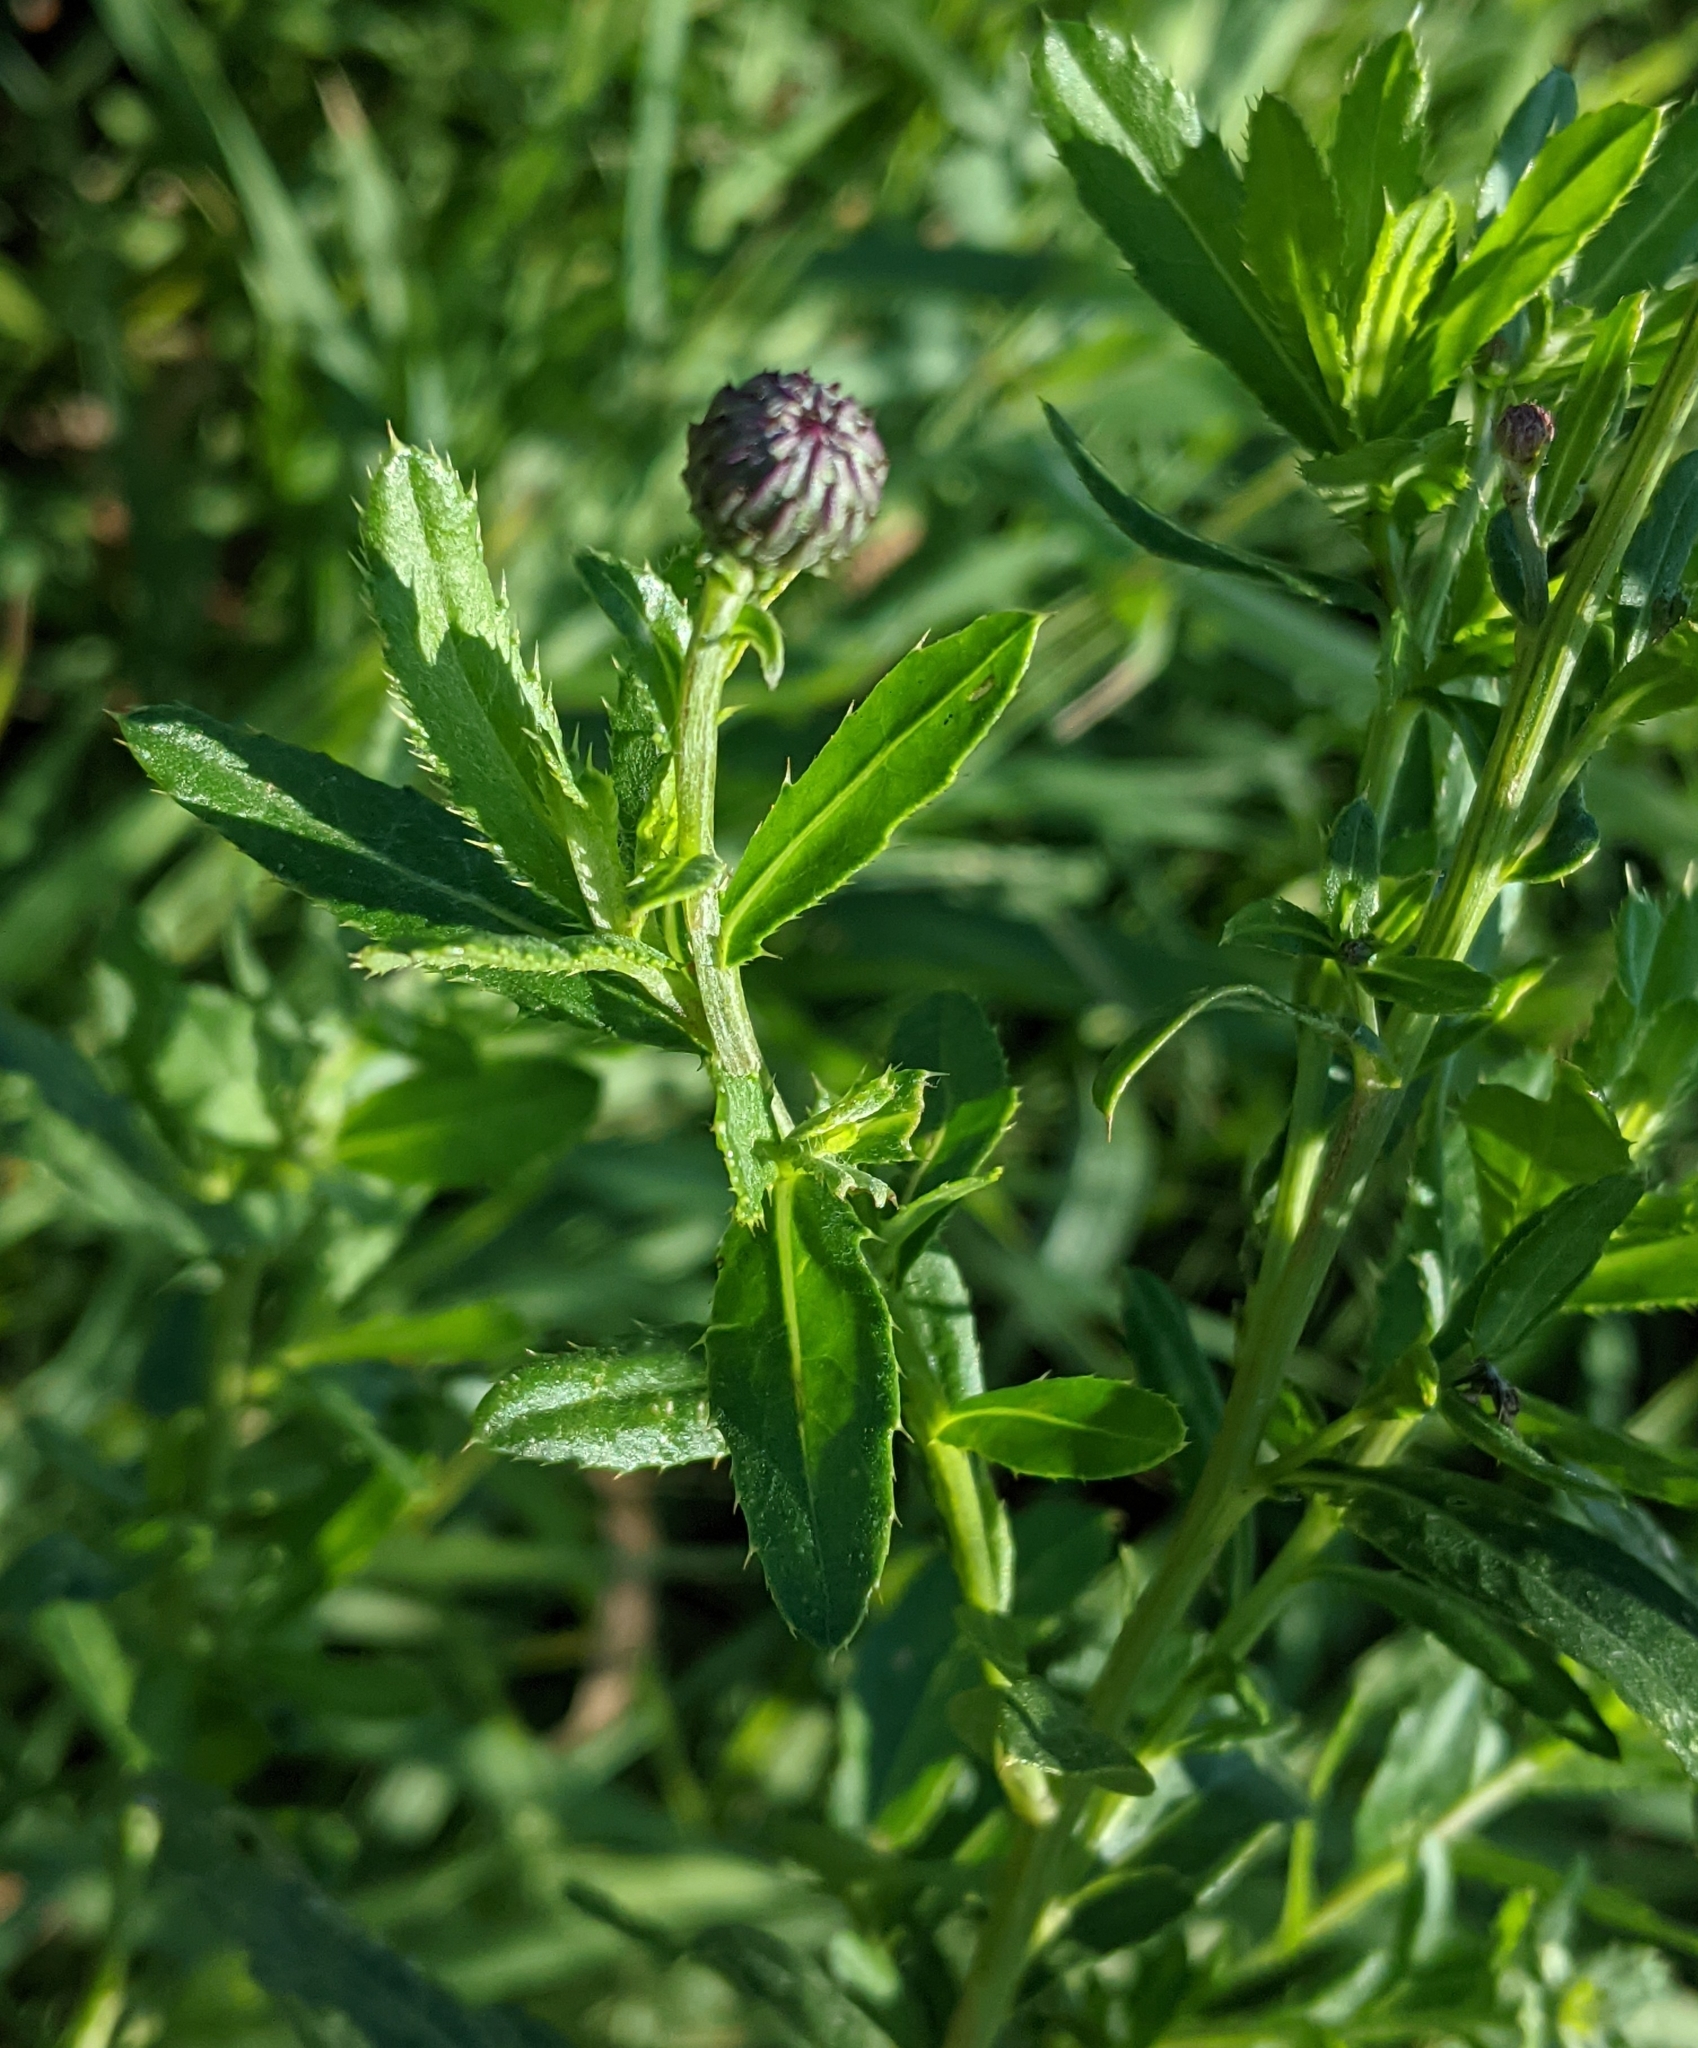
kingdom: Plantae
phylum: Tracheophyta
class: Magnoliopsida
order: Asterales
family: Asteraceae
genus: Cirsium
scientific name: Cirsium arvense
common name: Creeping thistle
